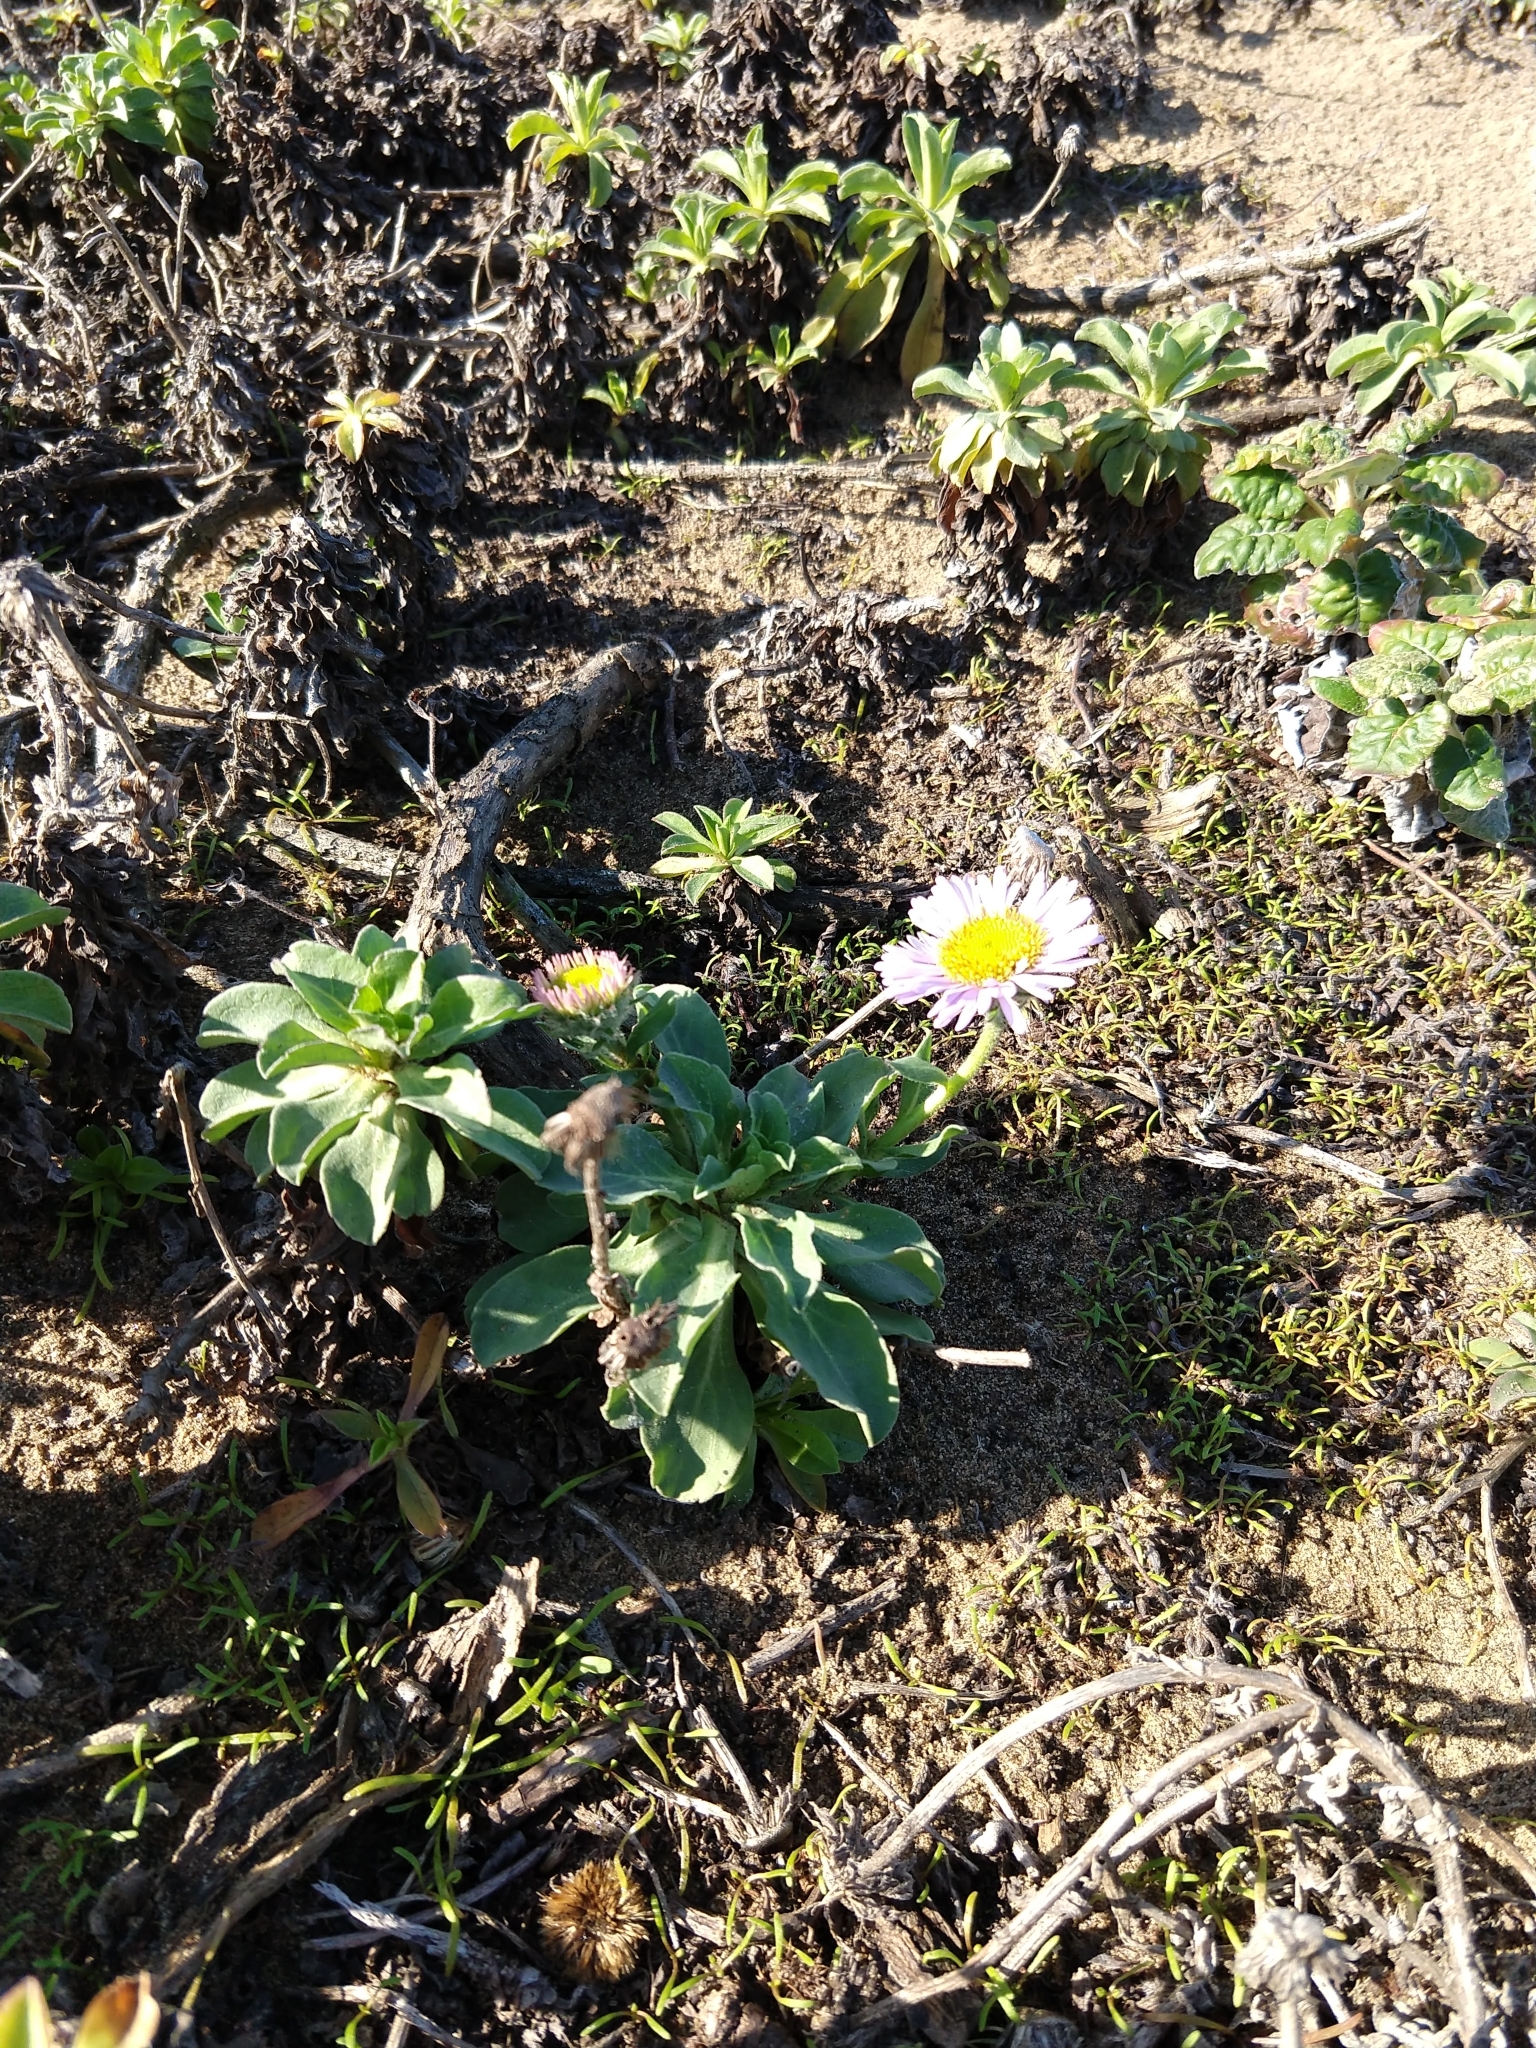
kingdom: Plantae
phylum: Tracheophyta
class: Magnoliopsida
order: Asterales
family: Asteraceae
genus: Erigeron
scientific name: Erigeron glaucus
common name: Seaside daisy
